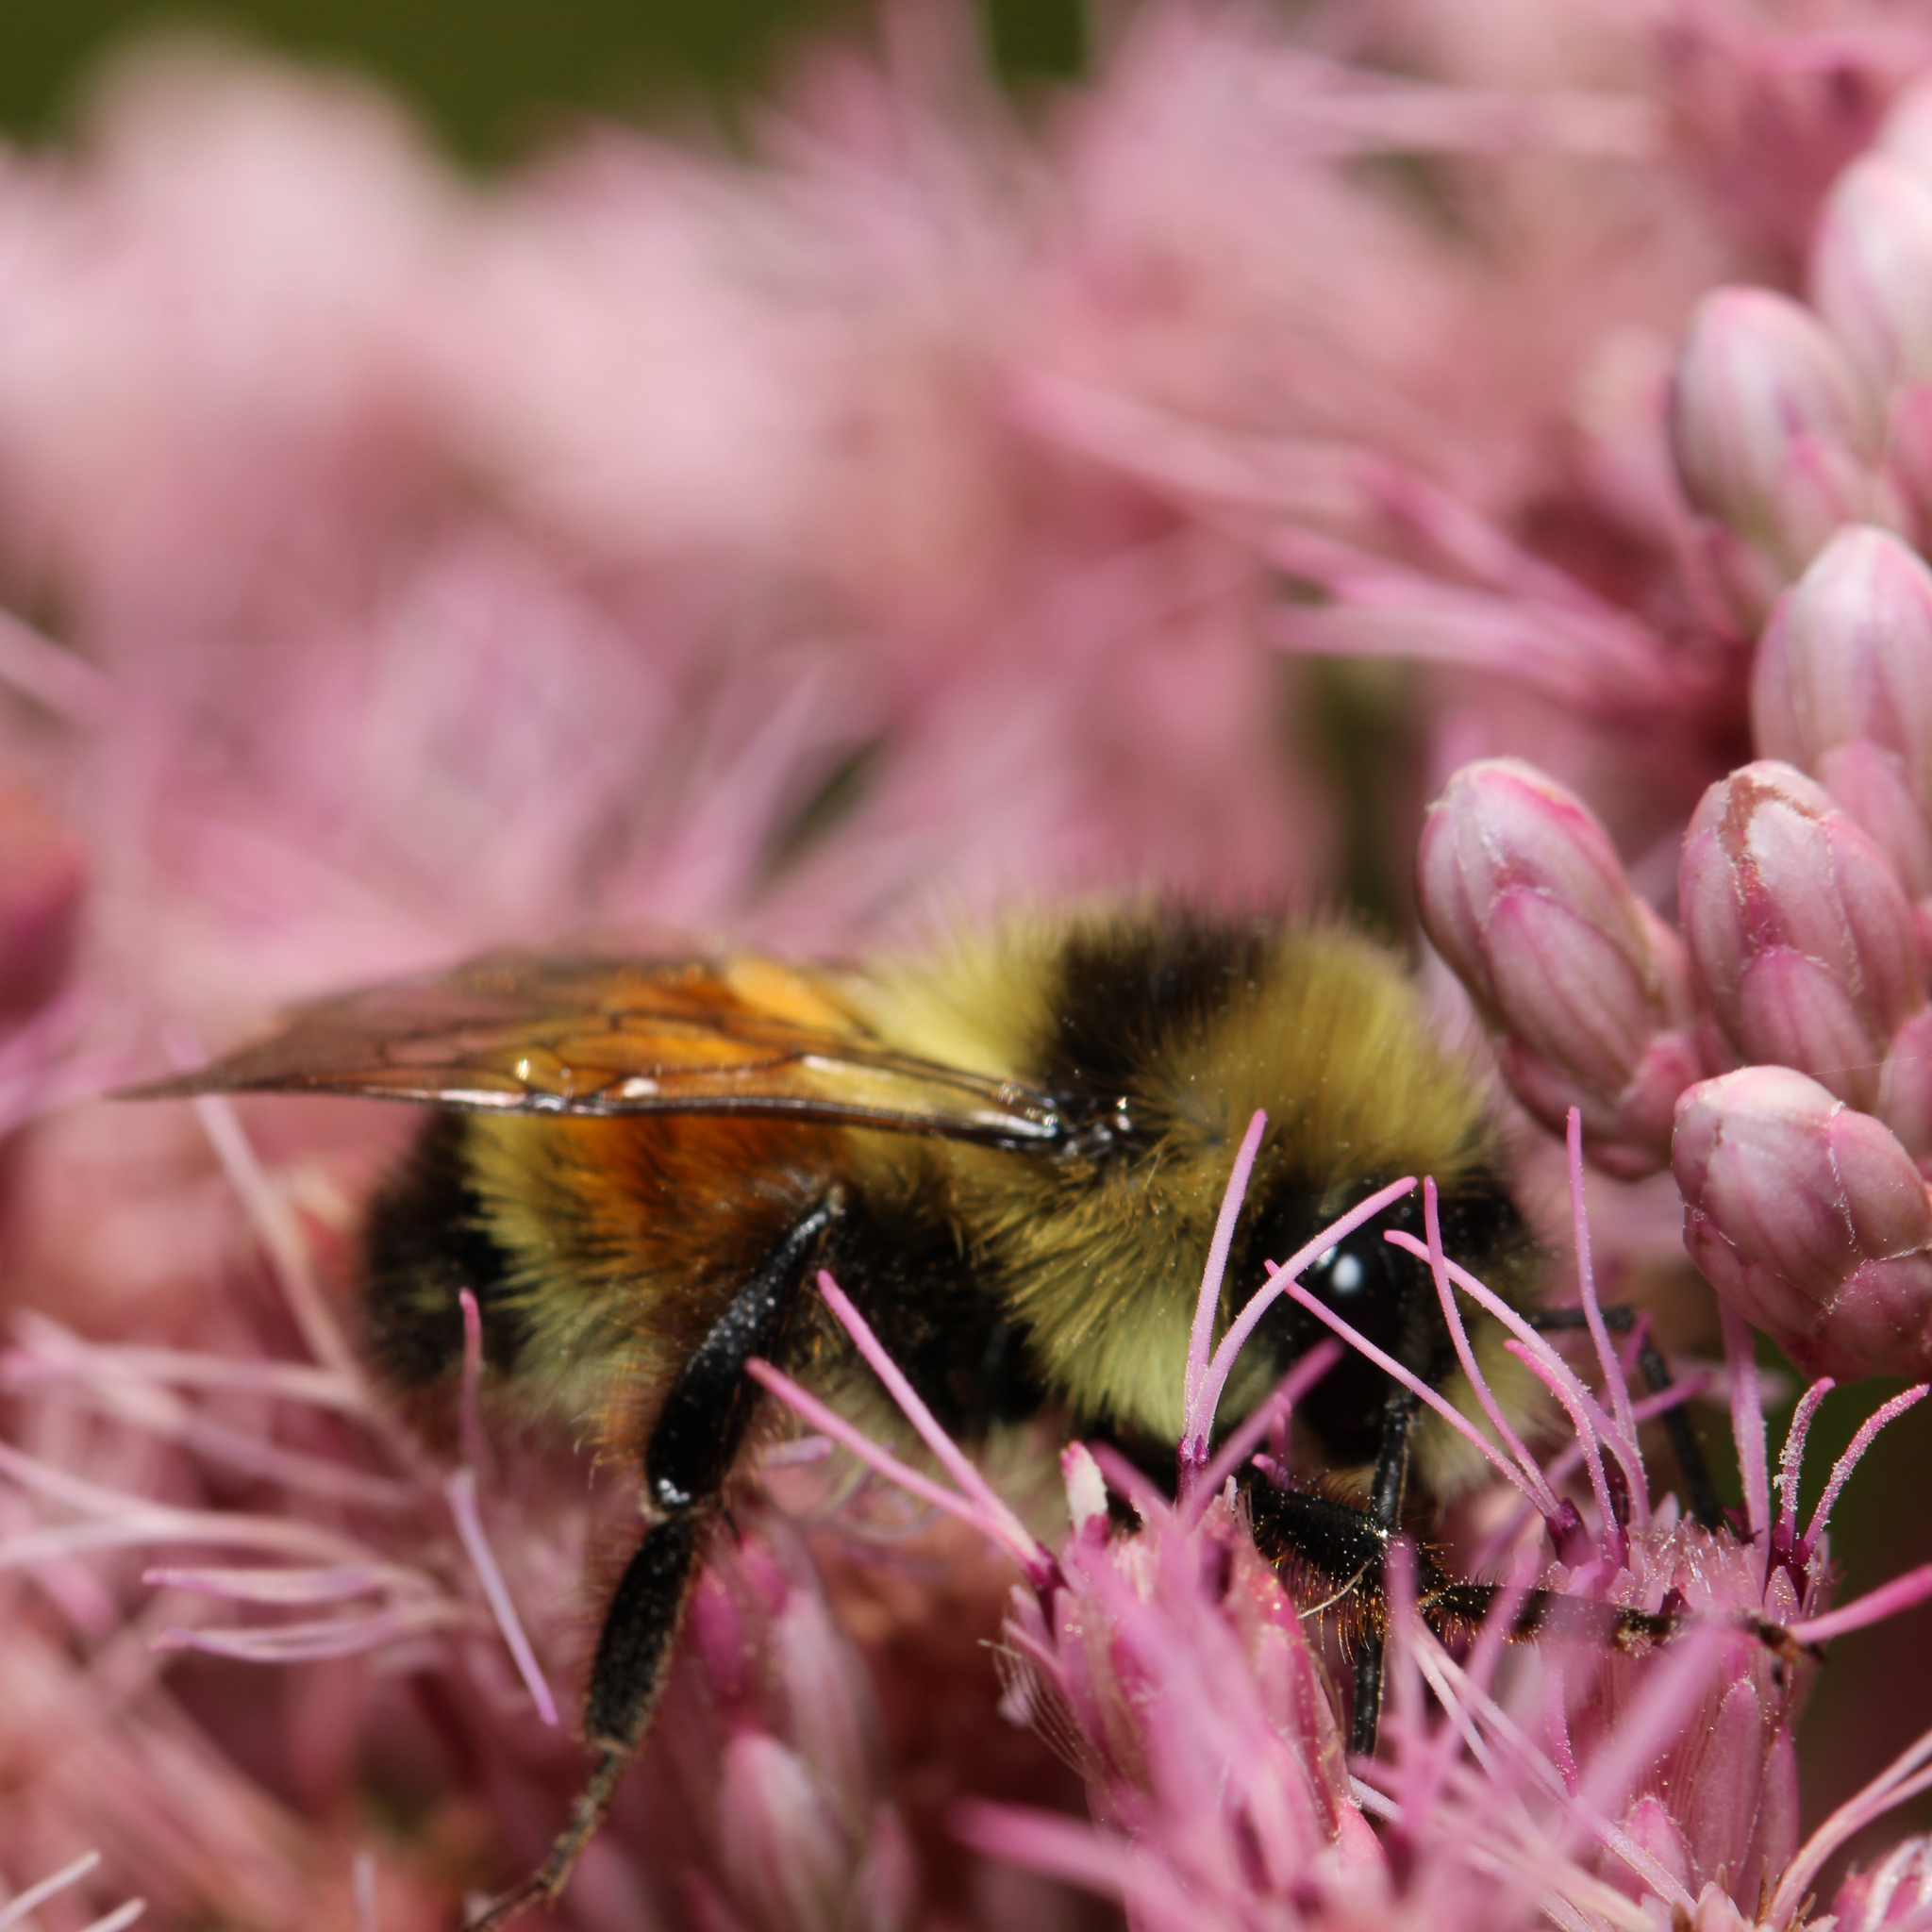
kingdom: Animalia
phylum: Arthropoda
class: Insecta
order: Hymenoptera
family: Apidae
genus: Bombus
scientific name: Bombus ternarius
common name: Tri-colored bumble bee
